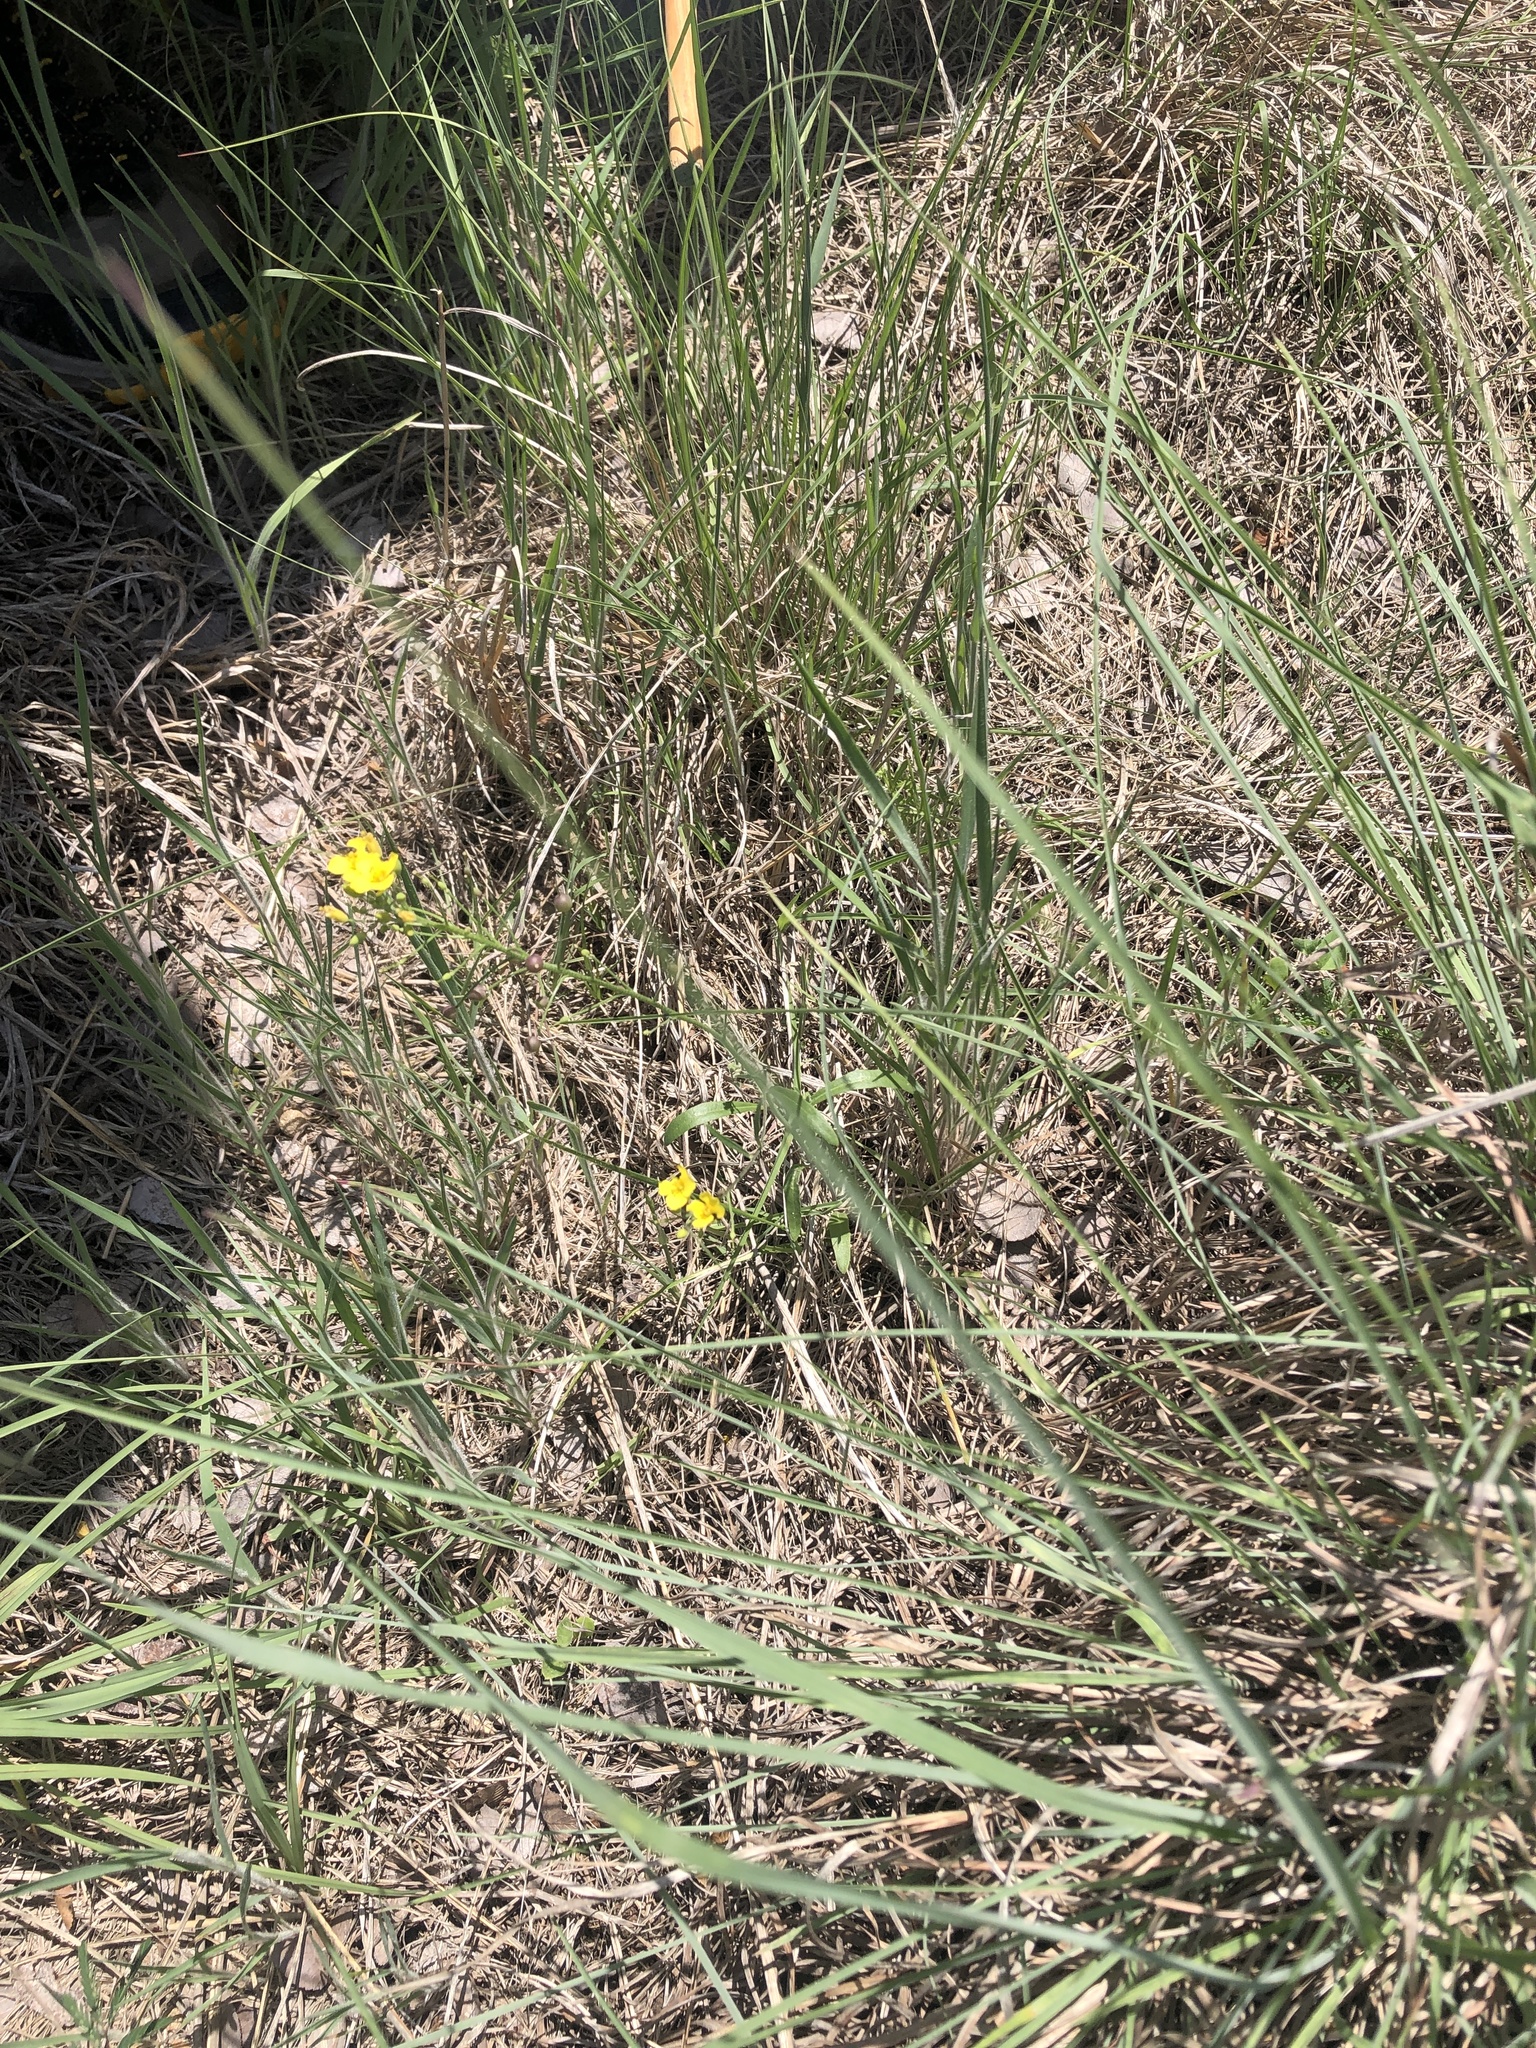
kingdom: Plantae
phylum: Tracheophyta
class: Magnoliopsida
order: Brassicales
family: Brassicaceae
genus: Physaria
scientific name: Physaria gracilis
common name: Spreading bladderpod
